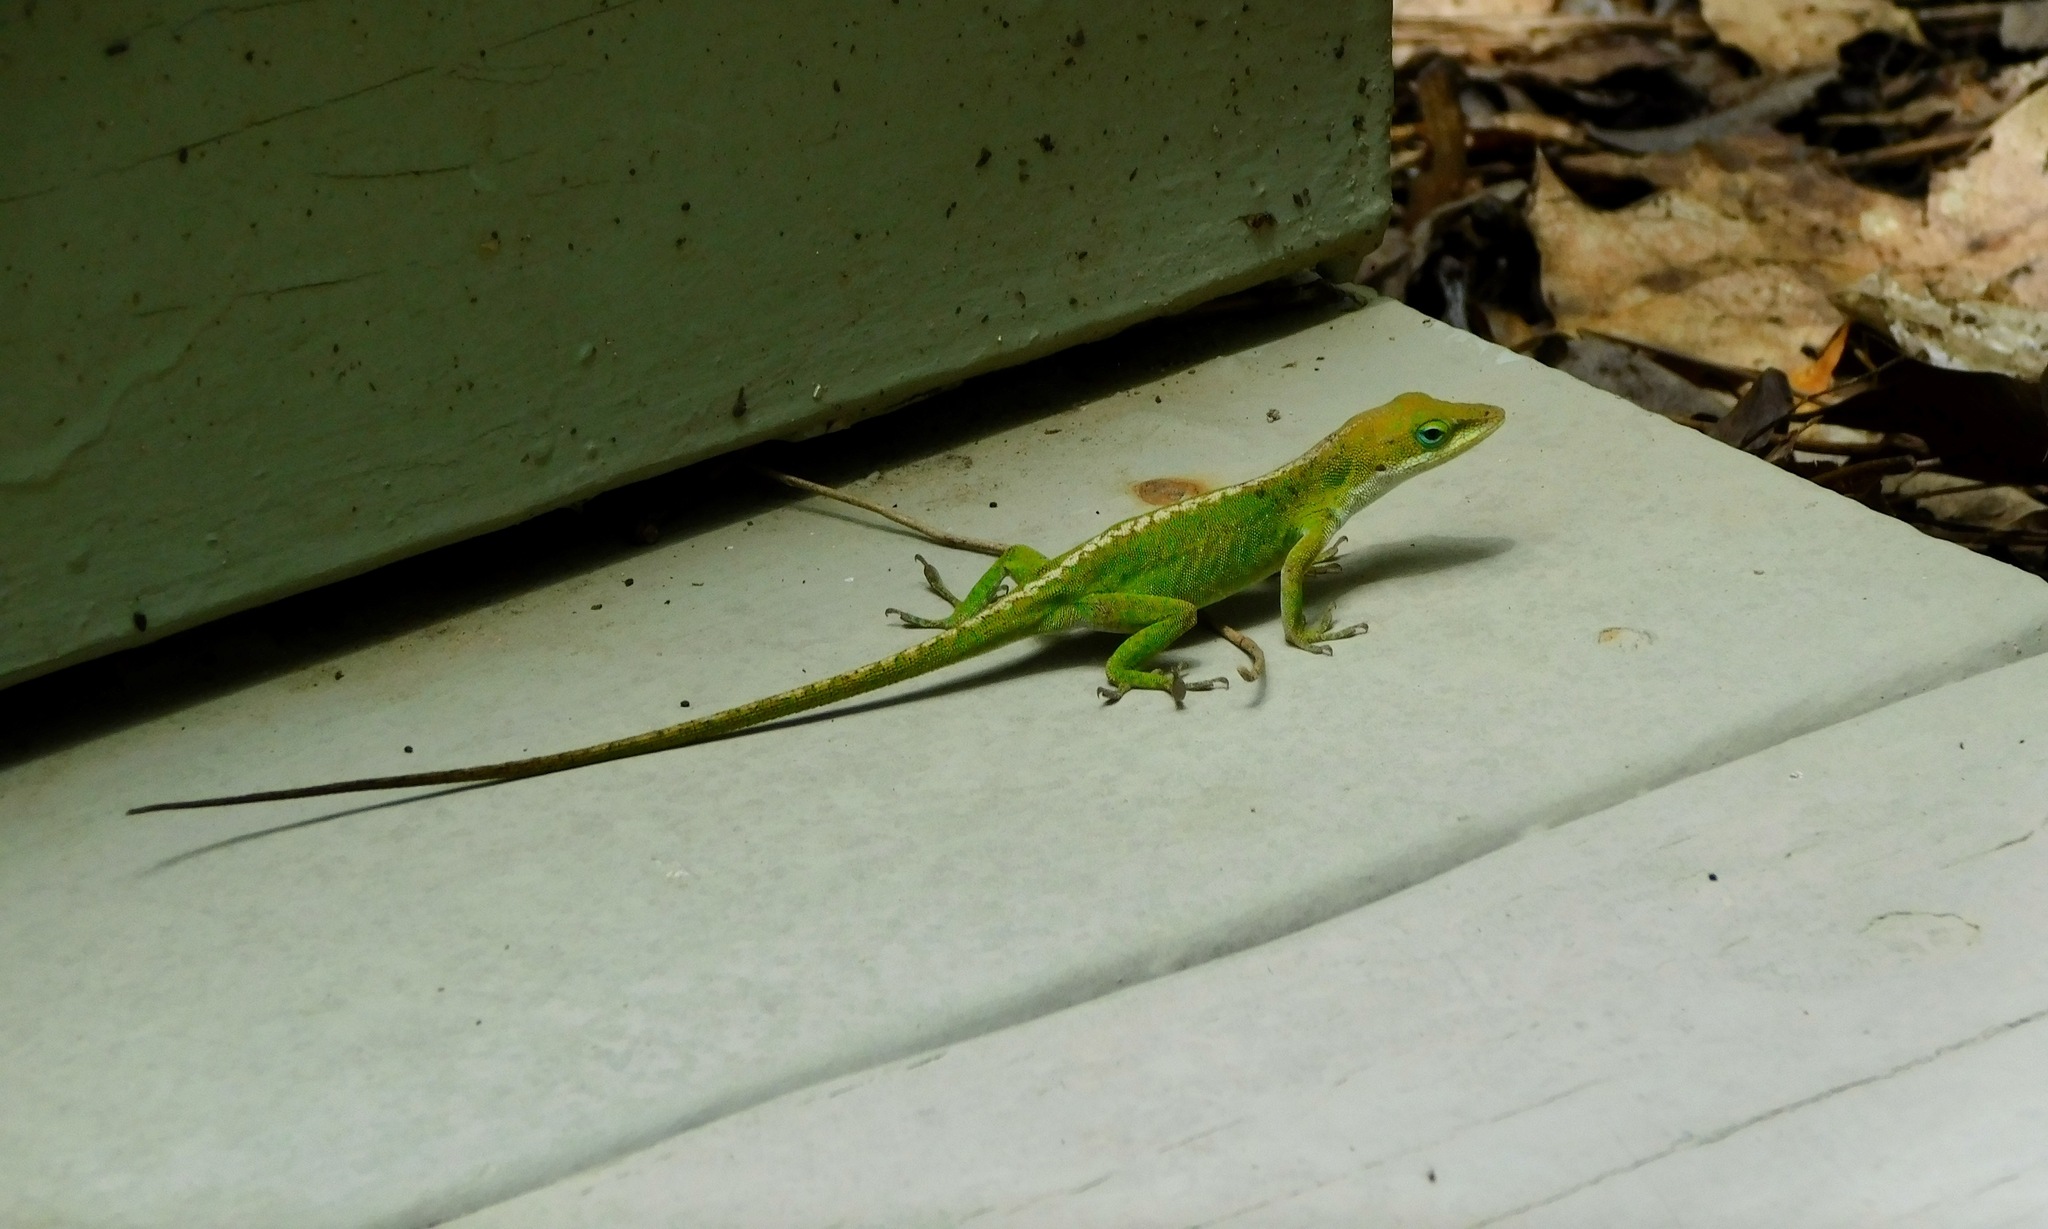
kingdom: Animalia
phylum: Chordata
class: Squamata
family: Dactyloidae
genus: Anolis
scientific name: Anolis carolinensis
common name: Green anole
